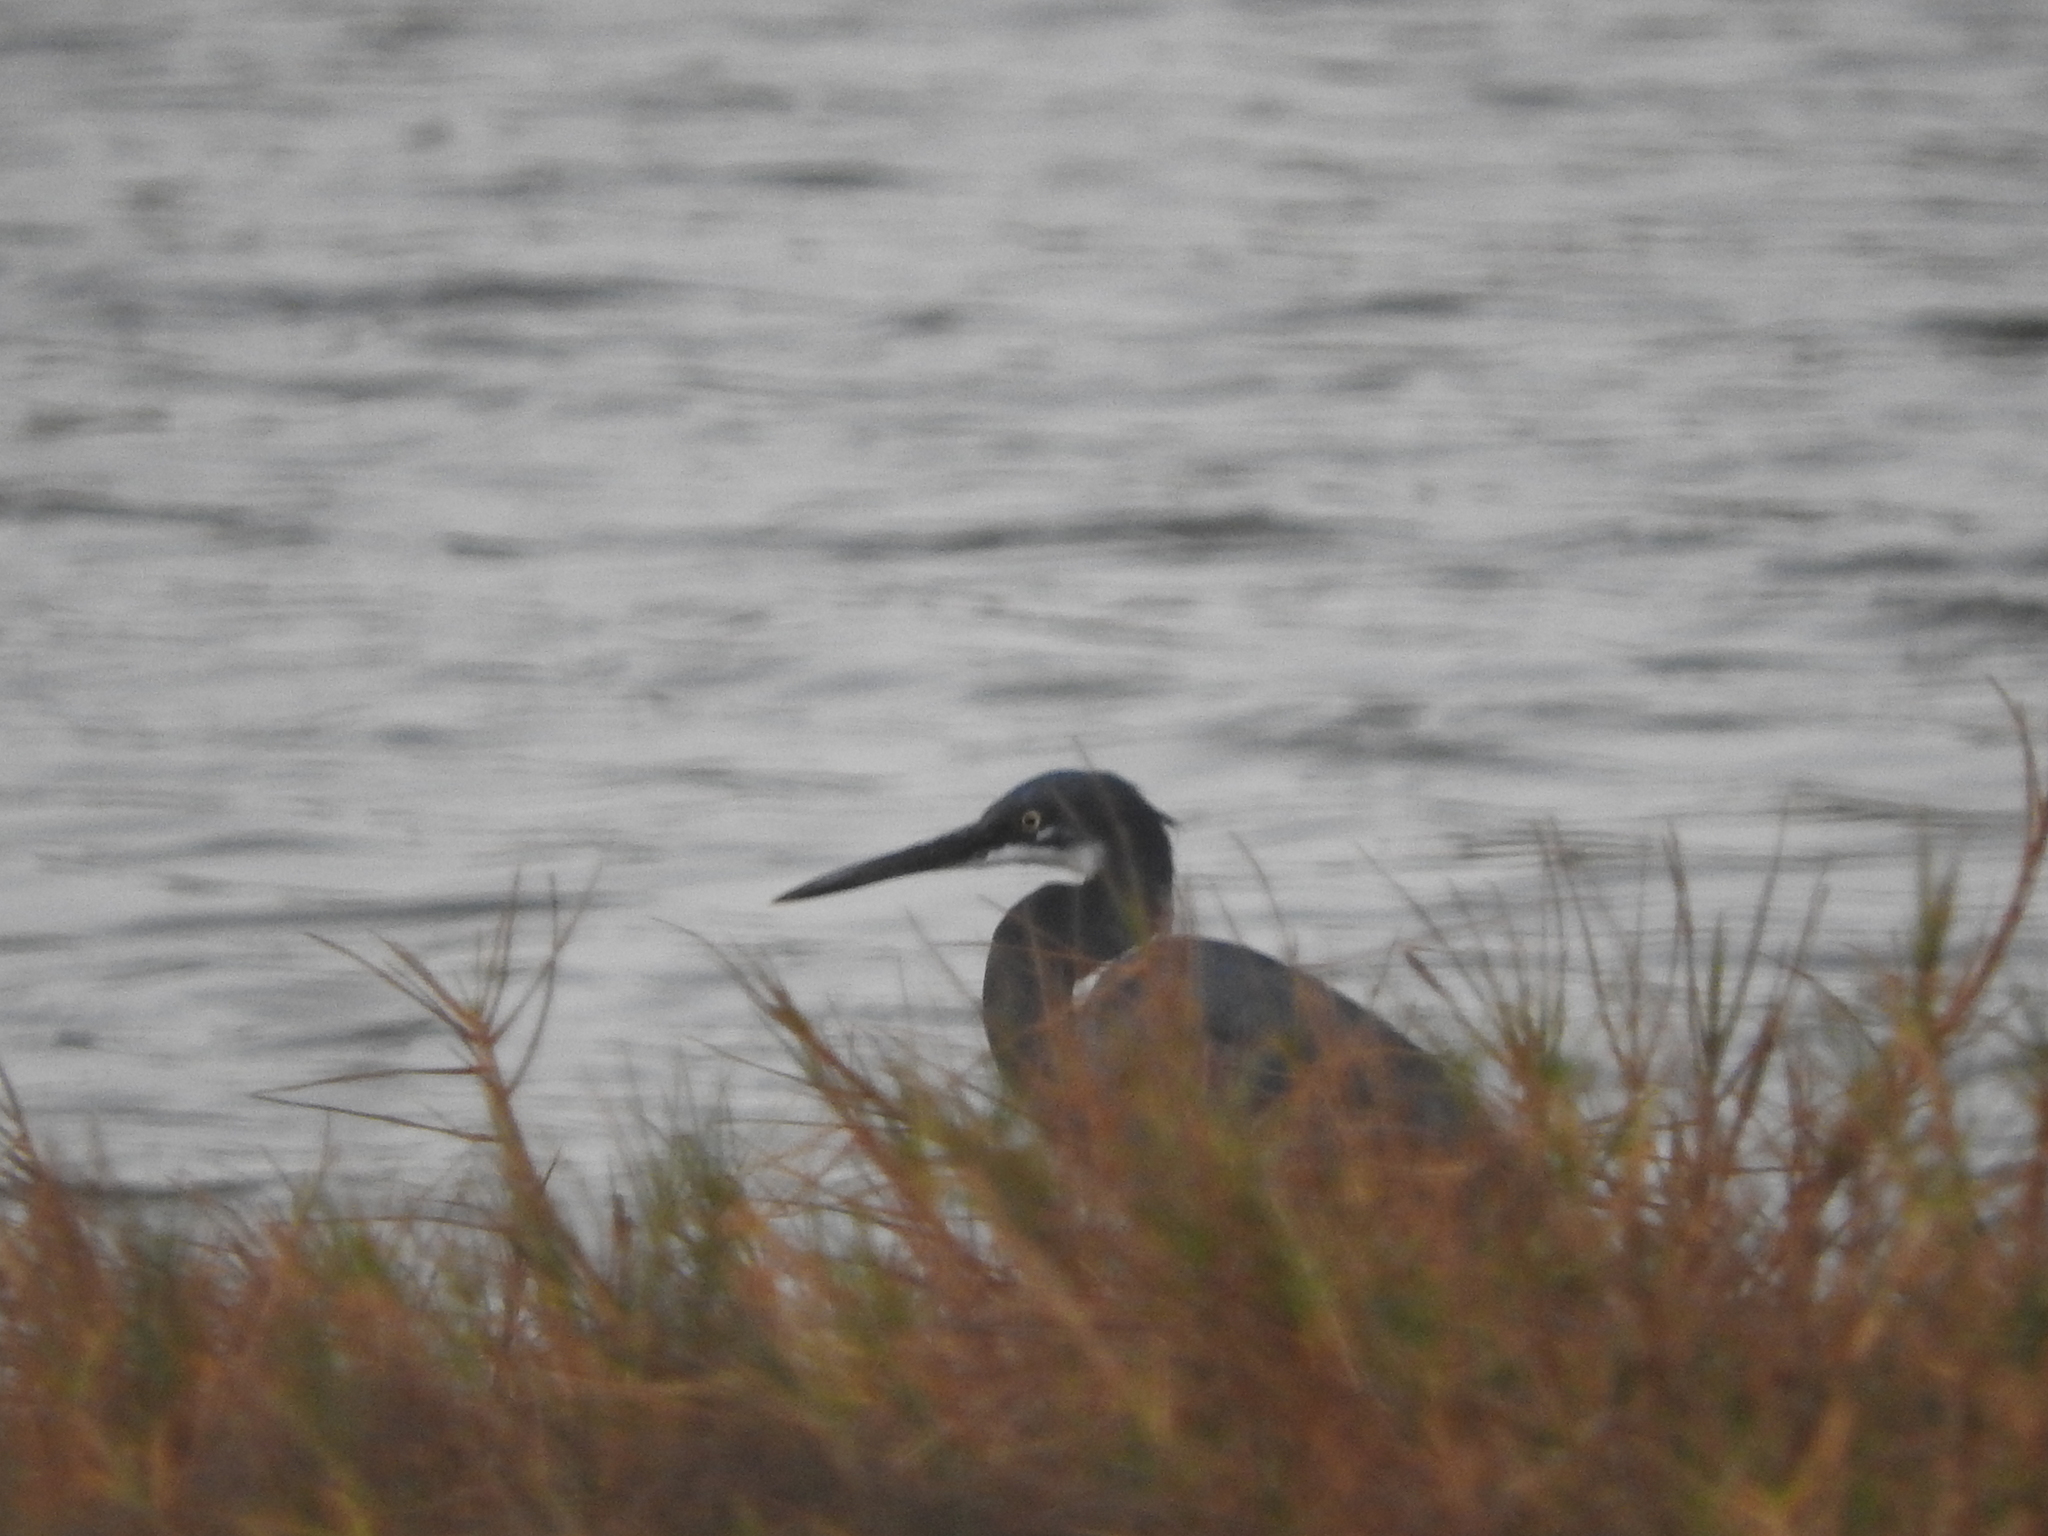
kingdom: Animalia
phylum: Chordata
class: Aves
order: Pelecaniformes
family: Ardeidae
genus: Egretta
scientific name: Egretta gularis
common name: Western reef-heron
